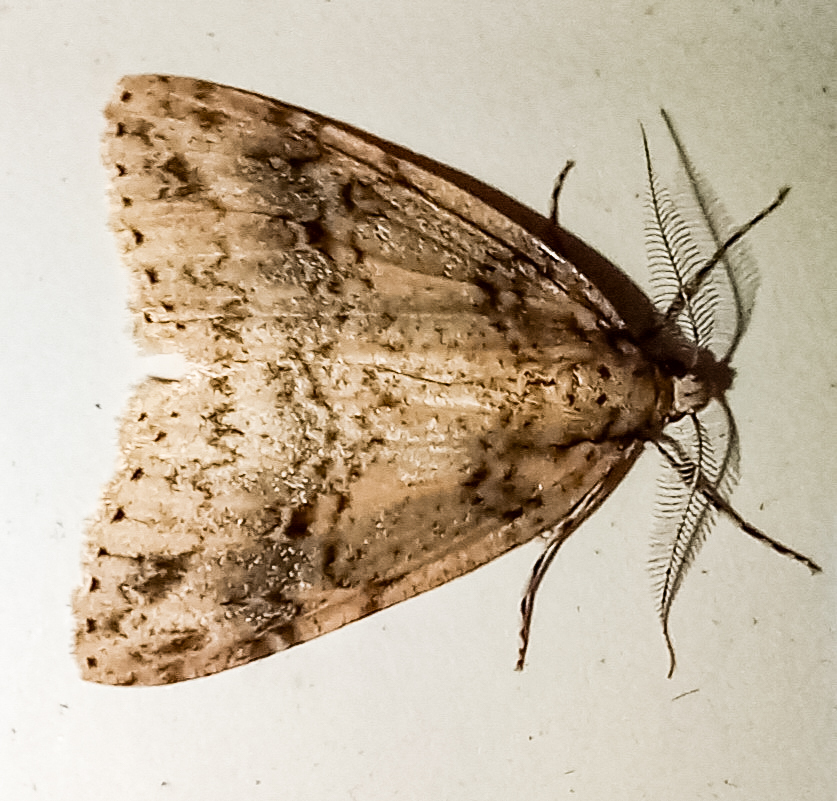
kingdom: Animalia
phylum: Arthropoda
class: Insecta
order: Lepidoptera
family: Geometridae
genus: Pseudocoremia
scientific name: Pseudocoremia rudisata
